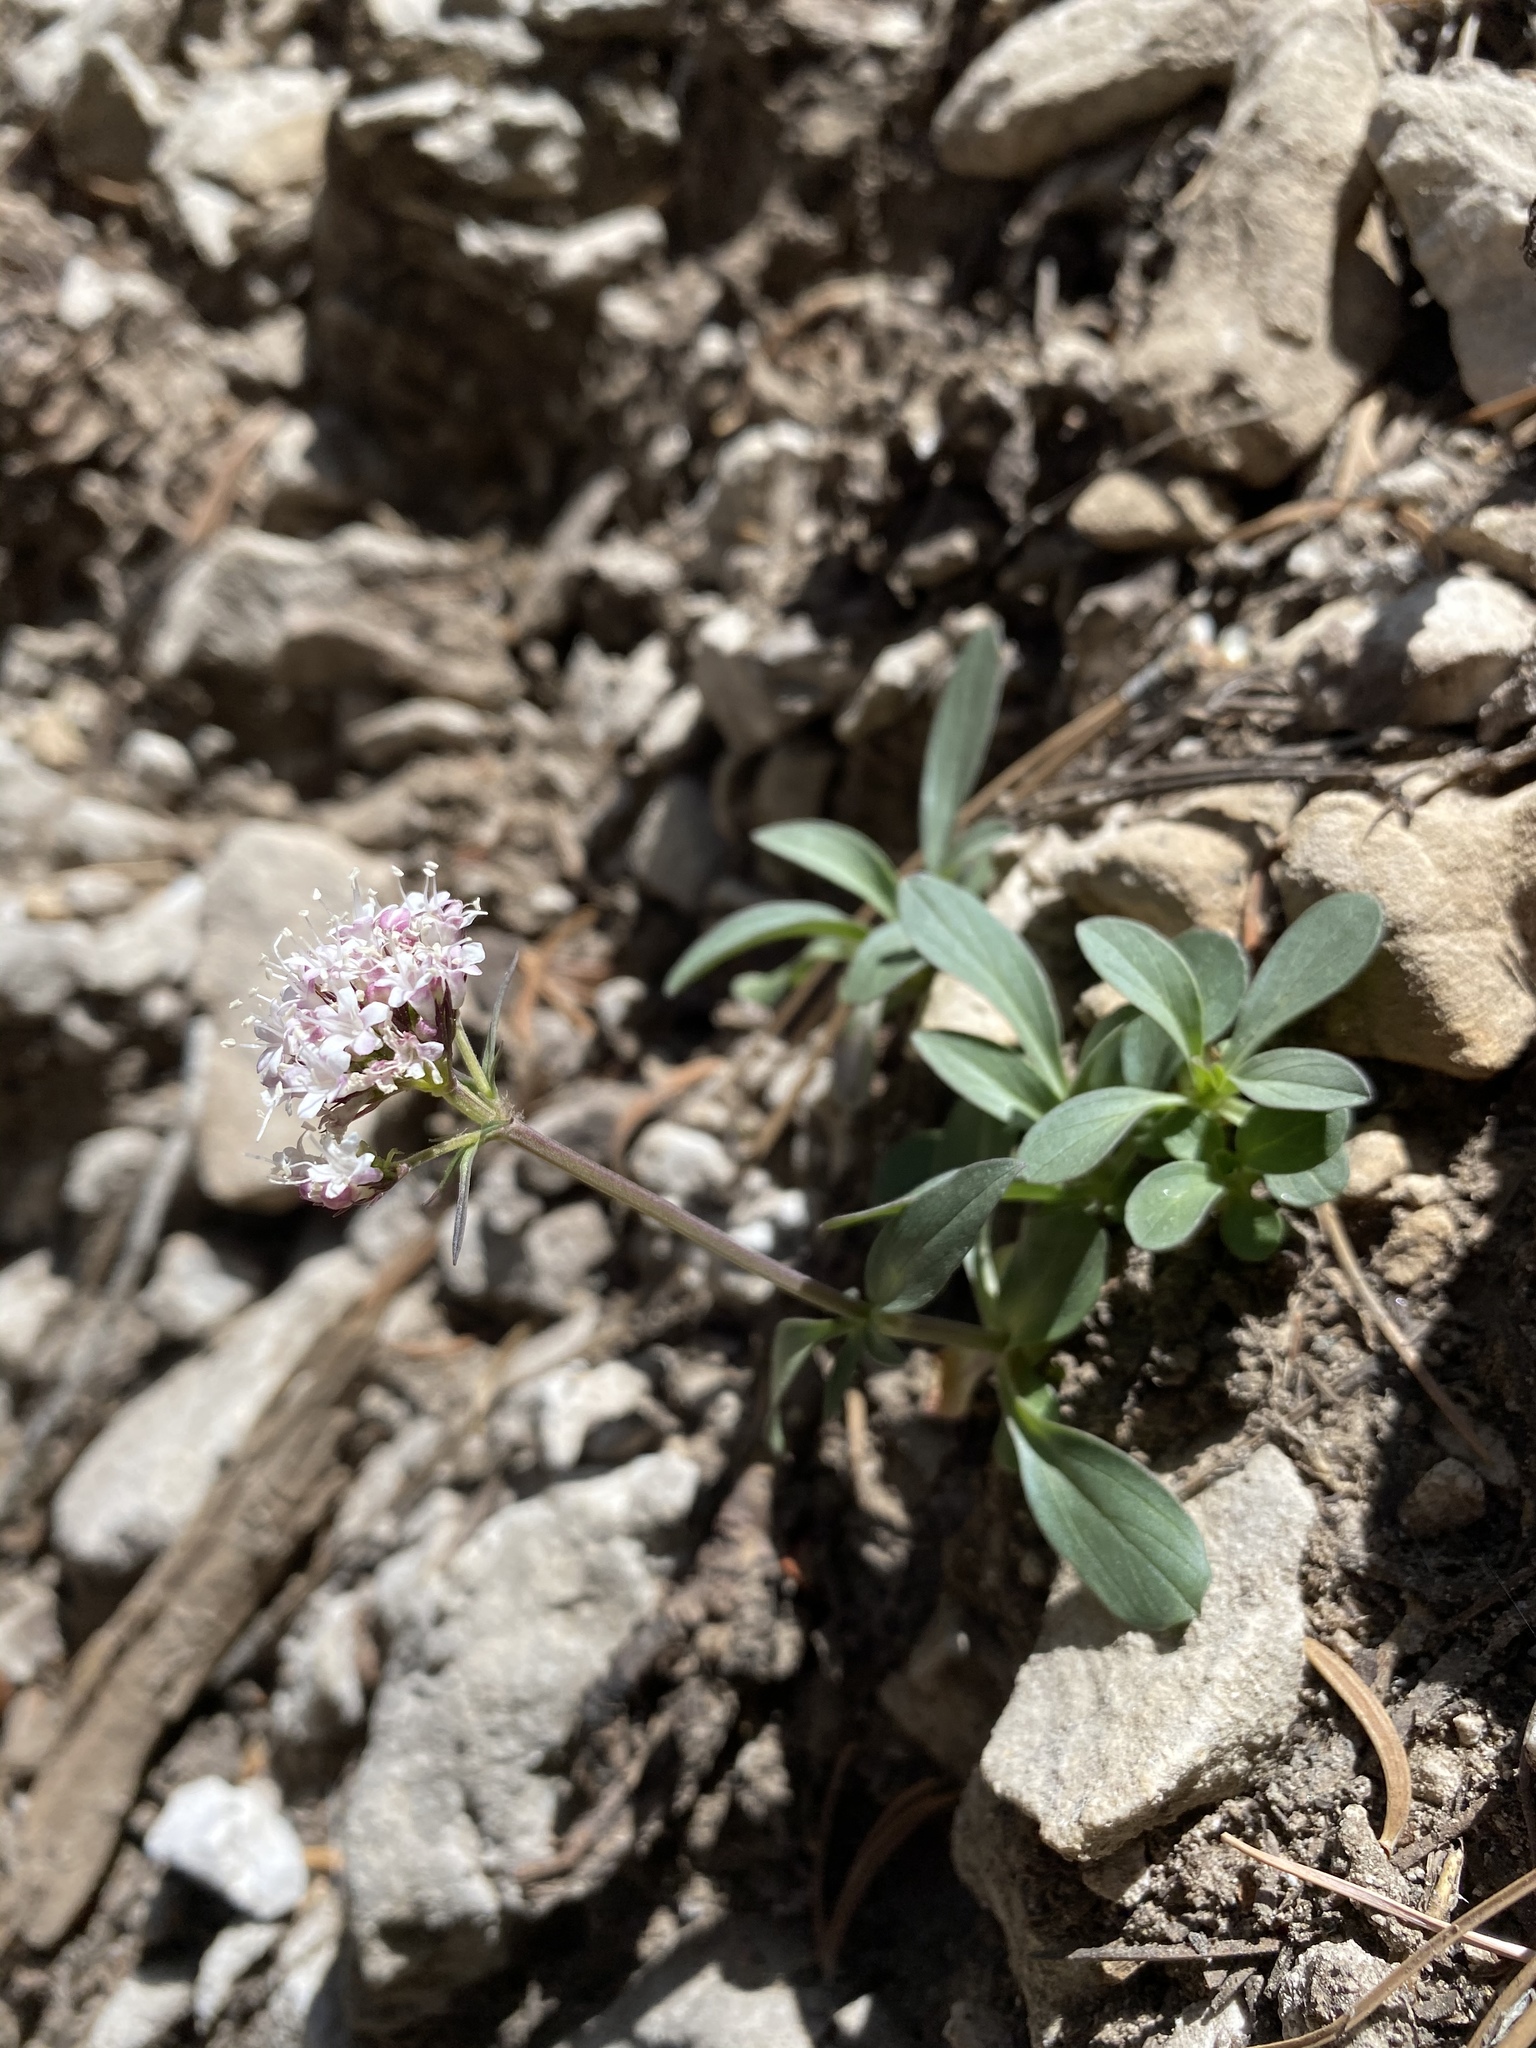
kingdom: Plantae
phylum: Tracheophyta
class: Magnoliopsida
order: Dipsacales
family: Caprifoliaceae
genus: Valeriana
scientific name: Valeriana acutiloba
